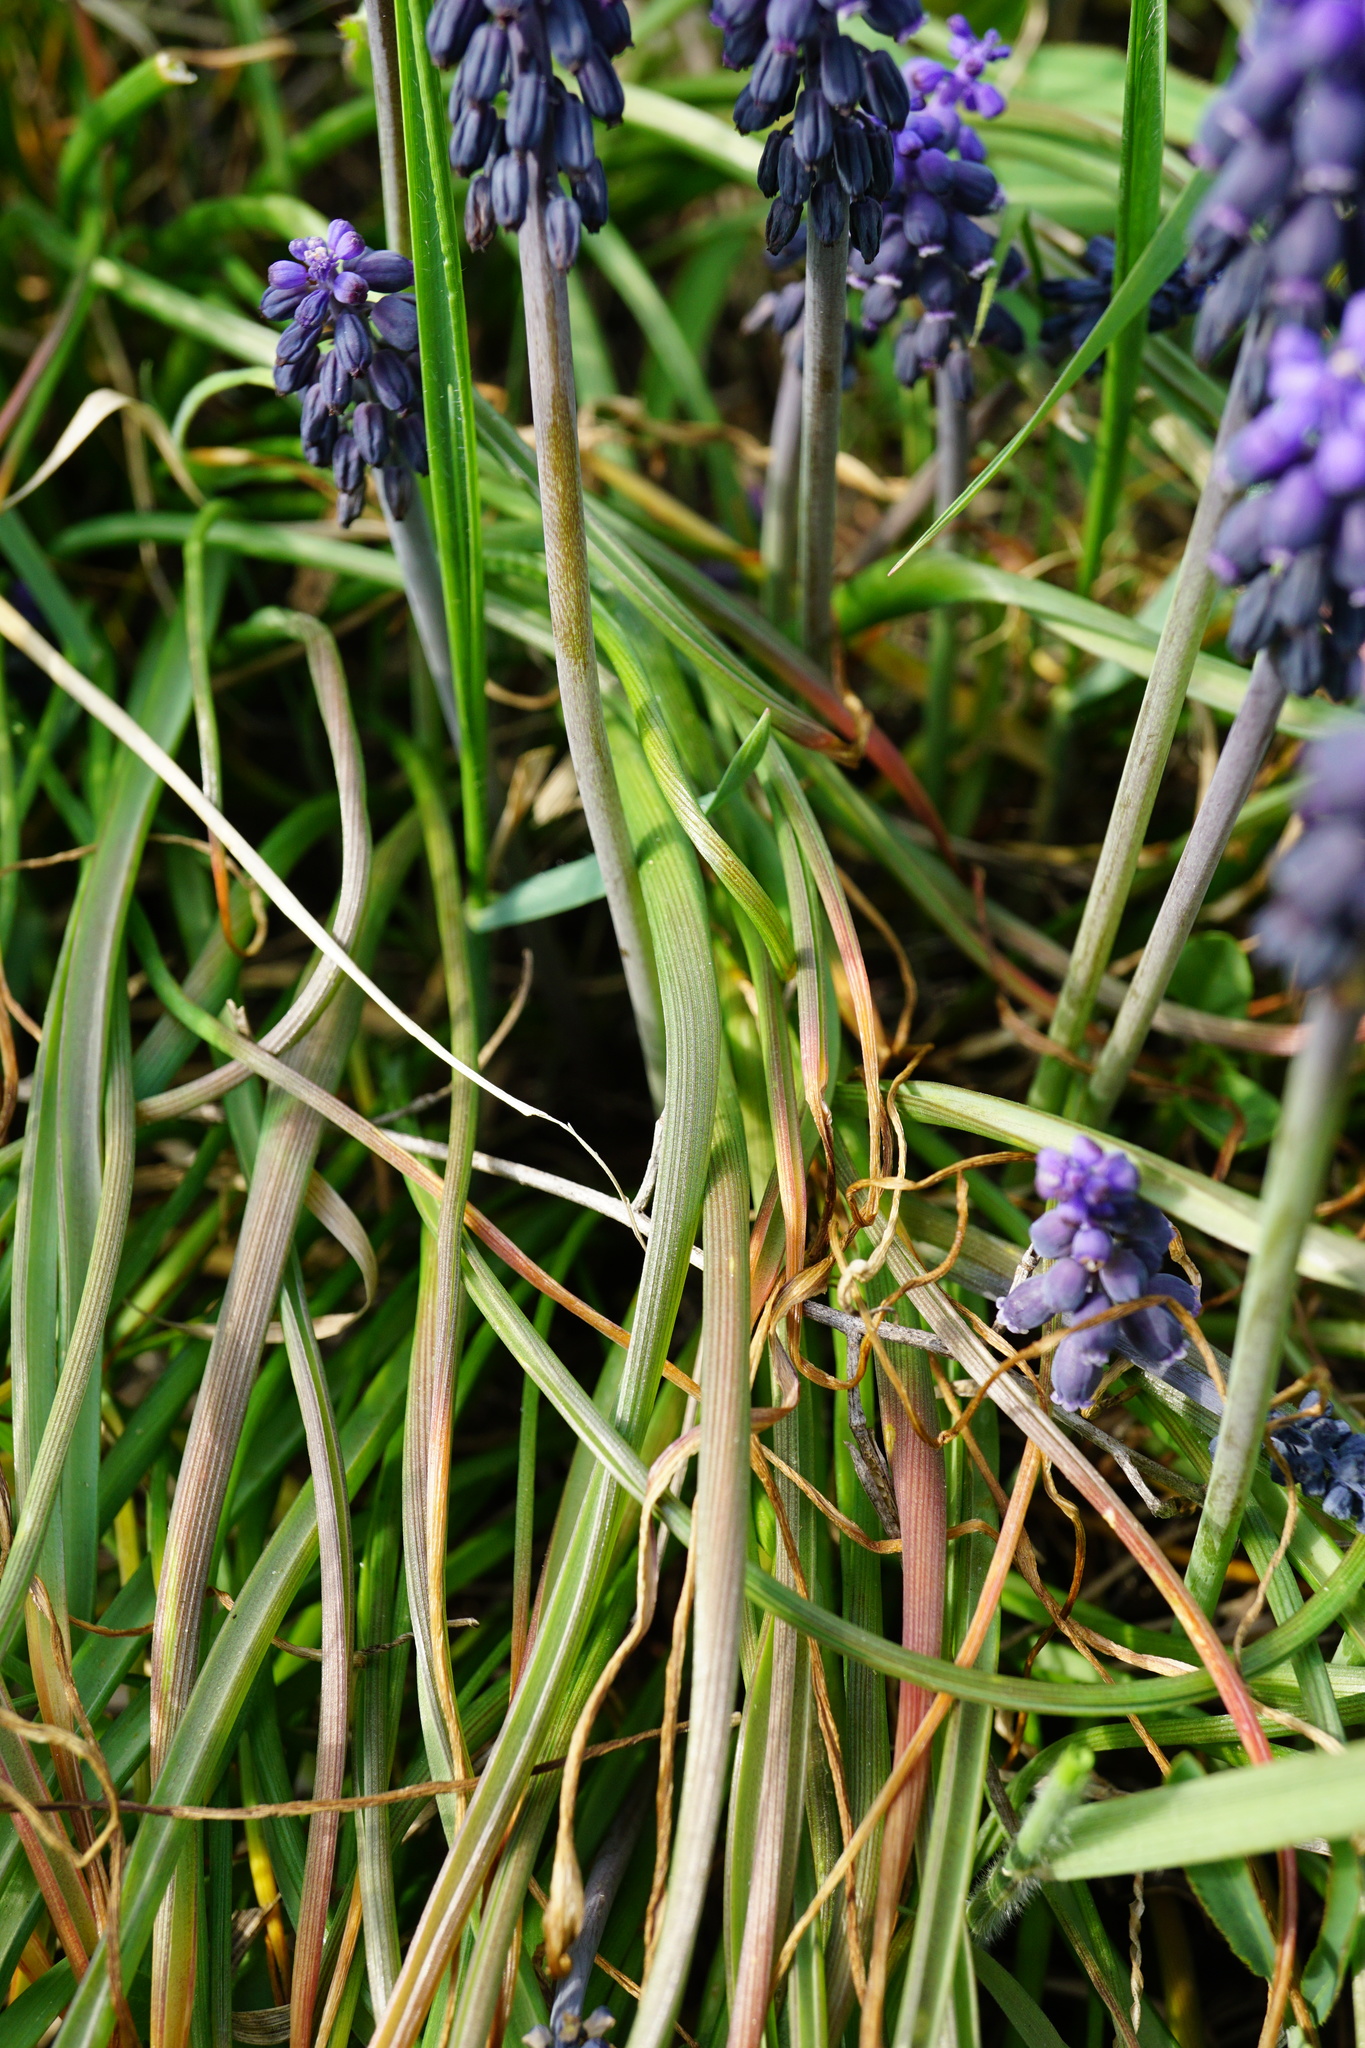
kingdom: Plantae
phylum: Tracheophyta
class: Liliopsida
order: Asparagales
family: Asparagaceae
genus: Muscari
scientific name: Muscari neglectum
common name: Grape-hyacinth
